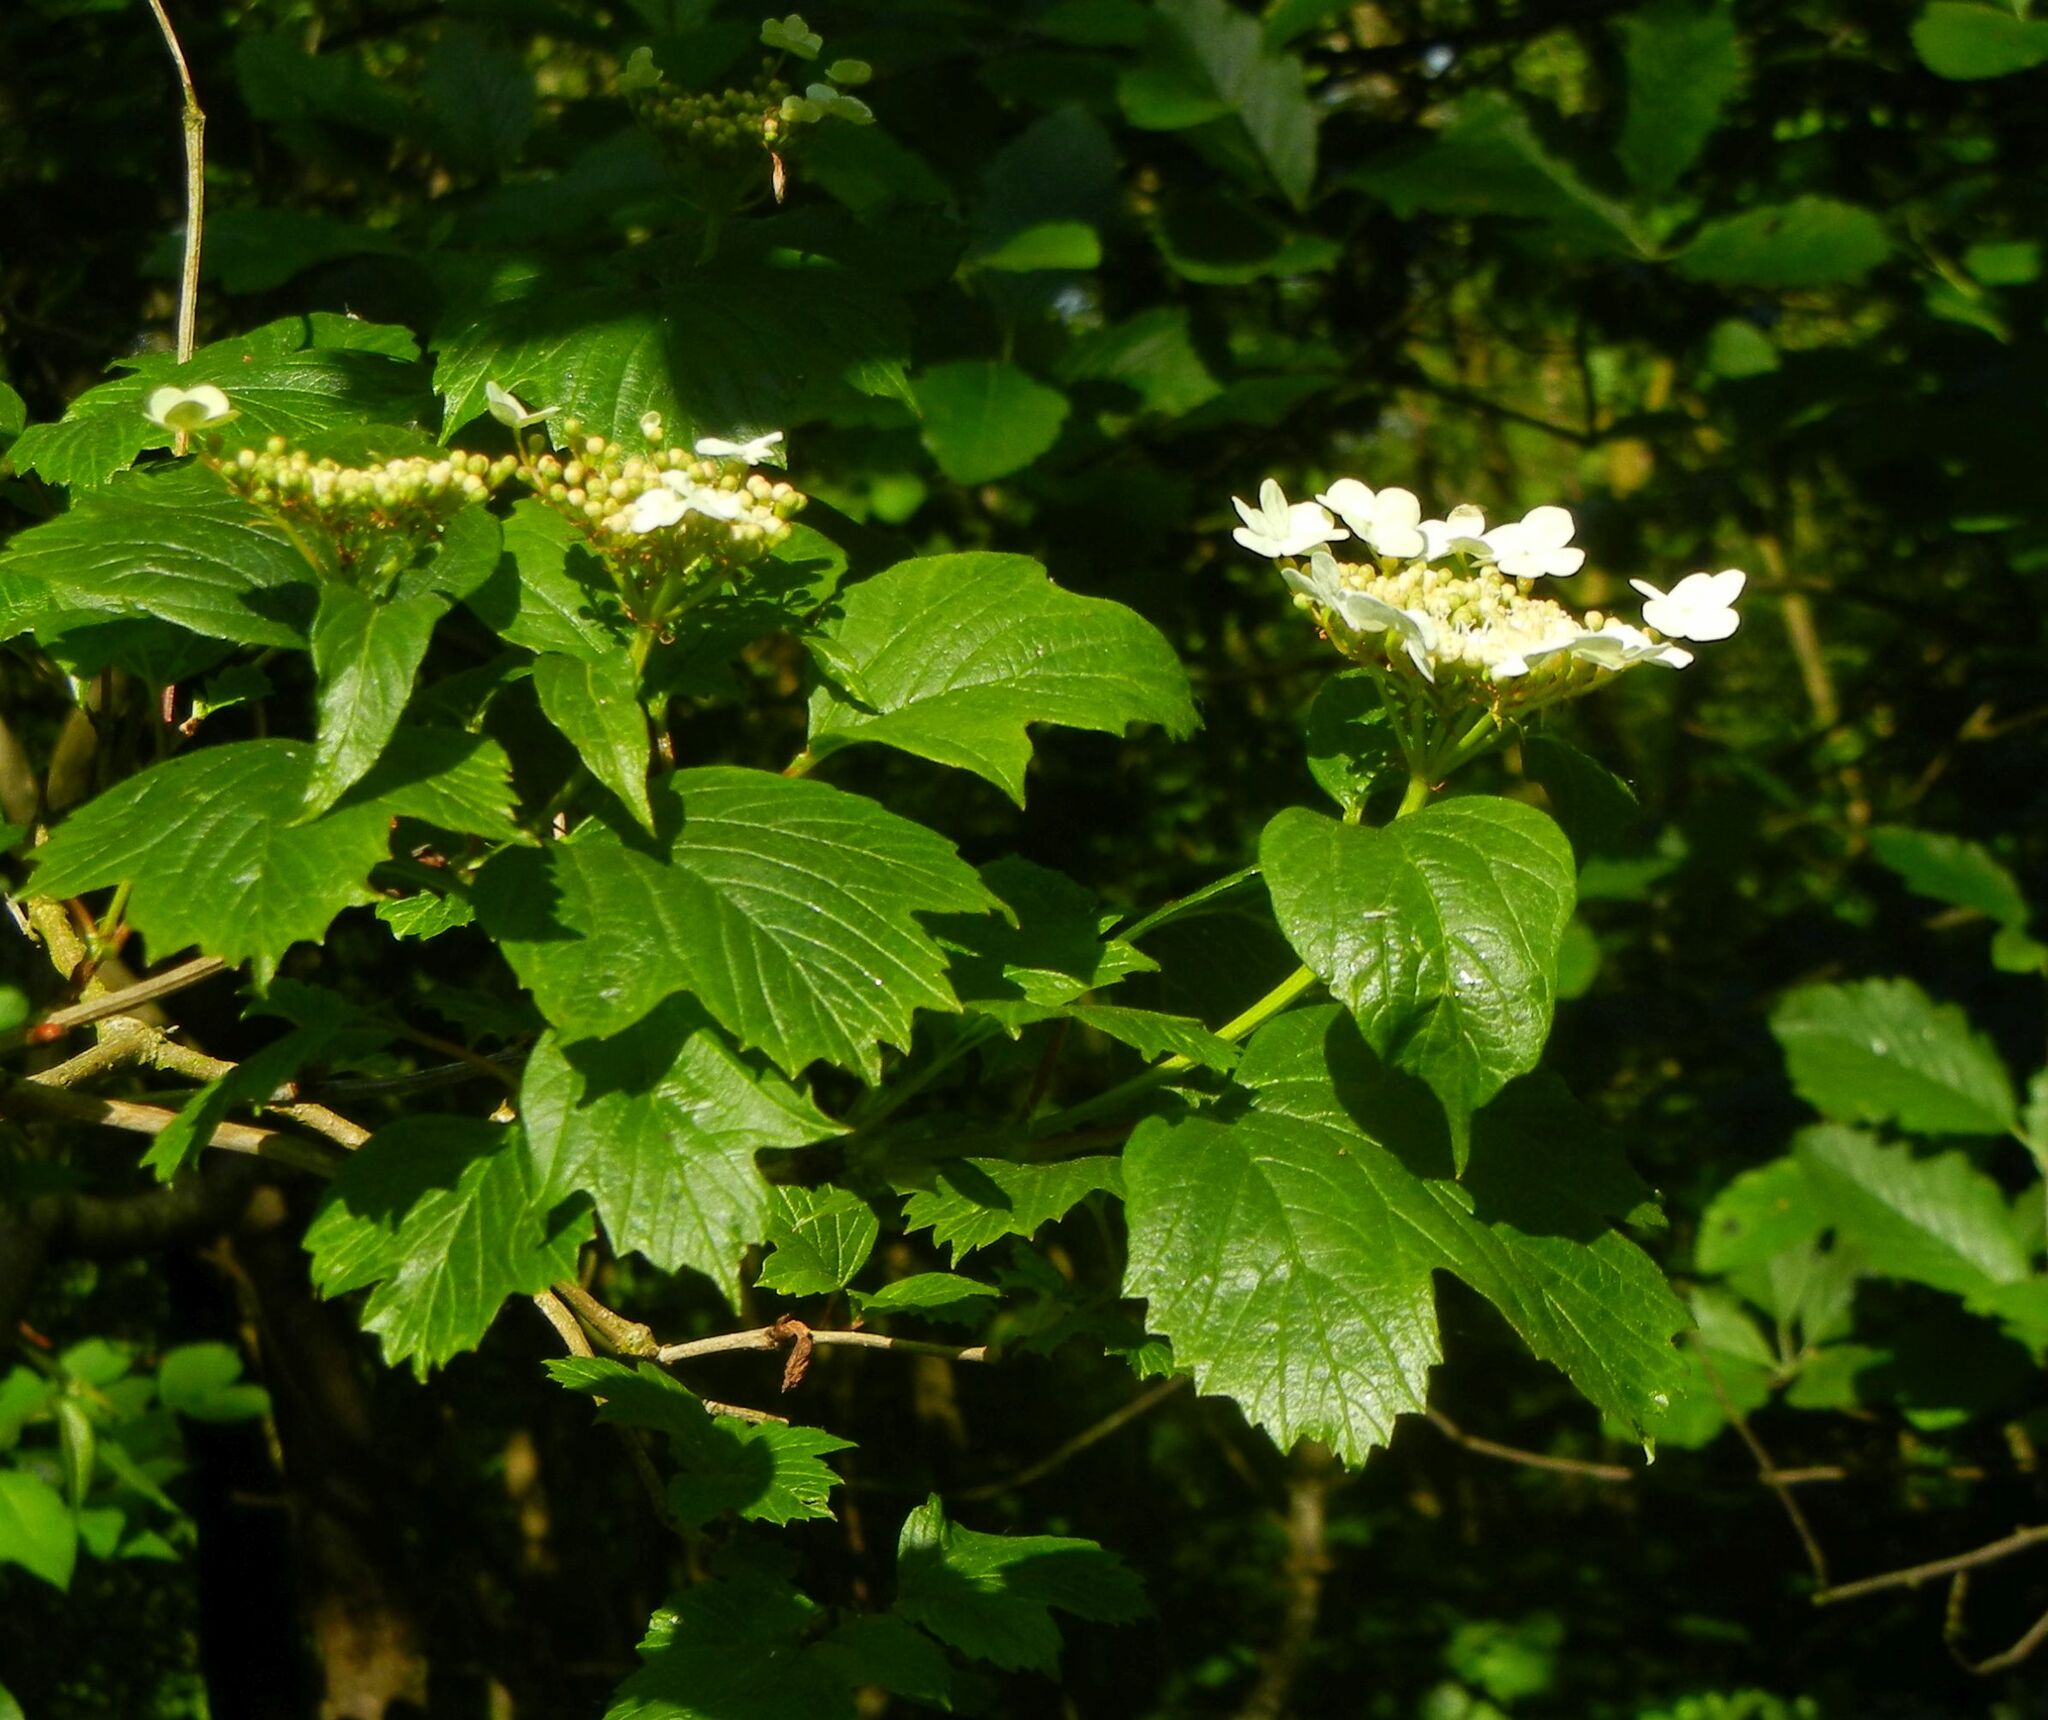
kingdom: Plantae
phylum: Tracheophyta
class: Magnoliopsida
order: Dipsacales
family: Viburnaceae
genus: Viburnum
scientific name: Viburnum opulus
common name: Guelder-rose
